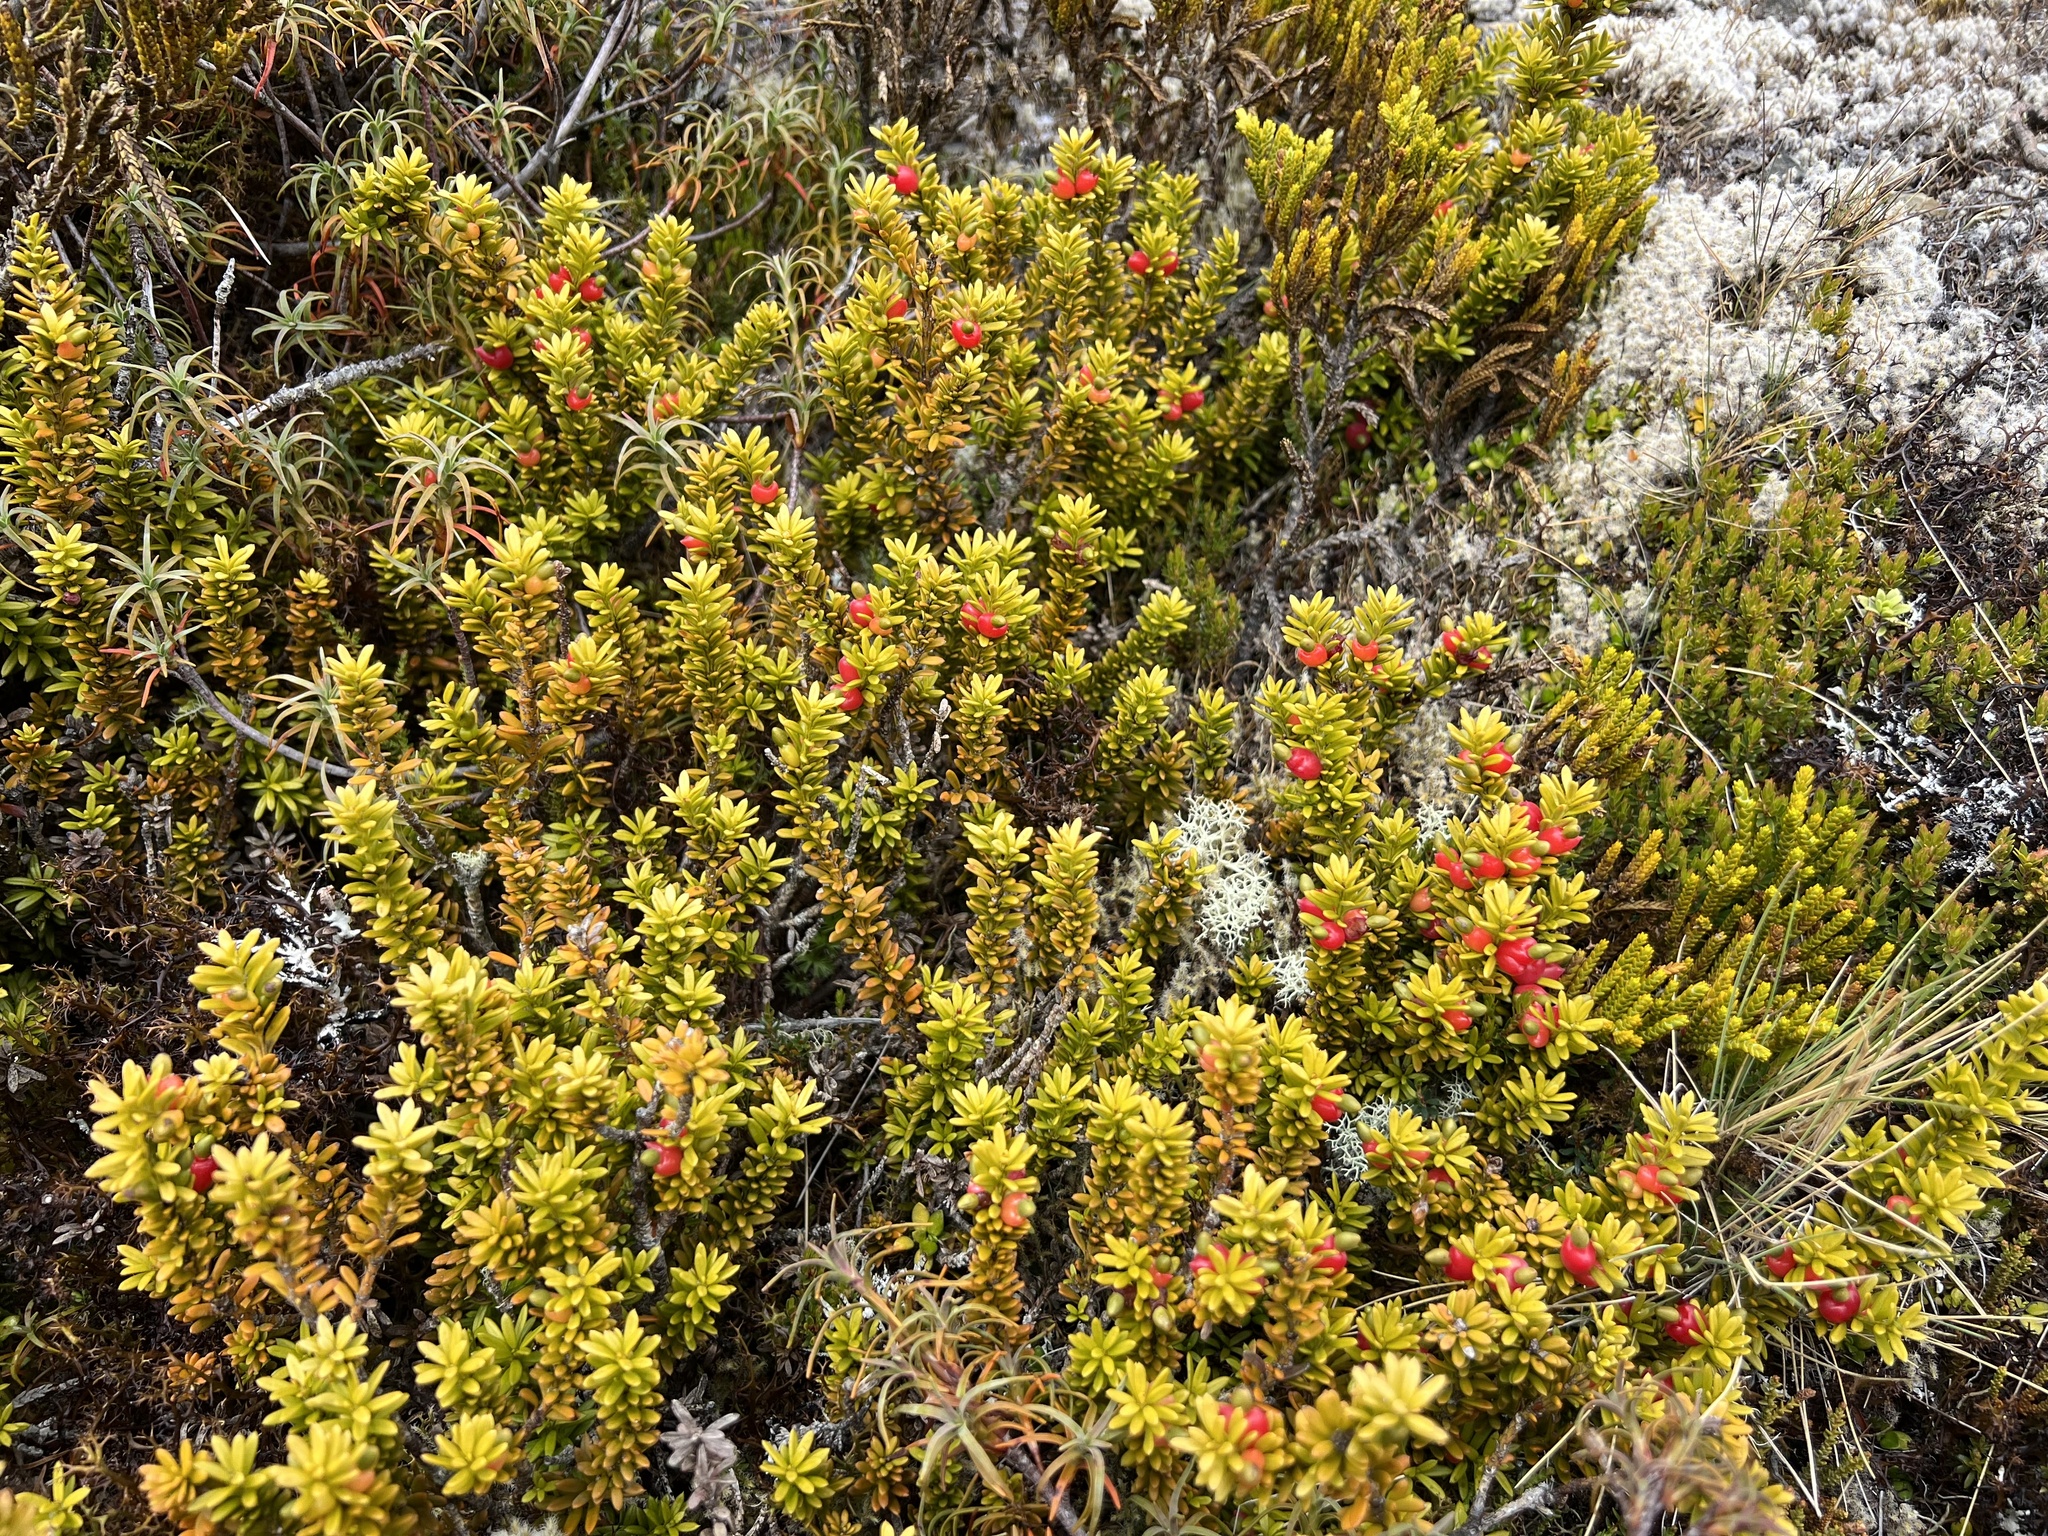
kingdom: Plantae
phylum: Tracheophyta
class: Pinopsida
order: Pinales
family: Podocarpaceae
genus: Podocarpus
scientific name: Podocarpus nivalis
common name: Alpine totara
